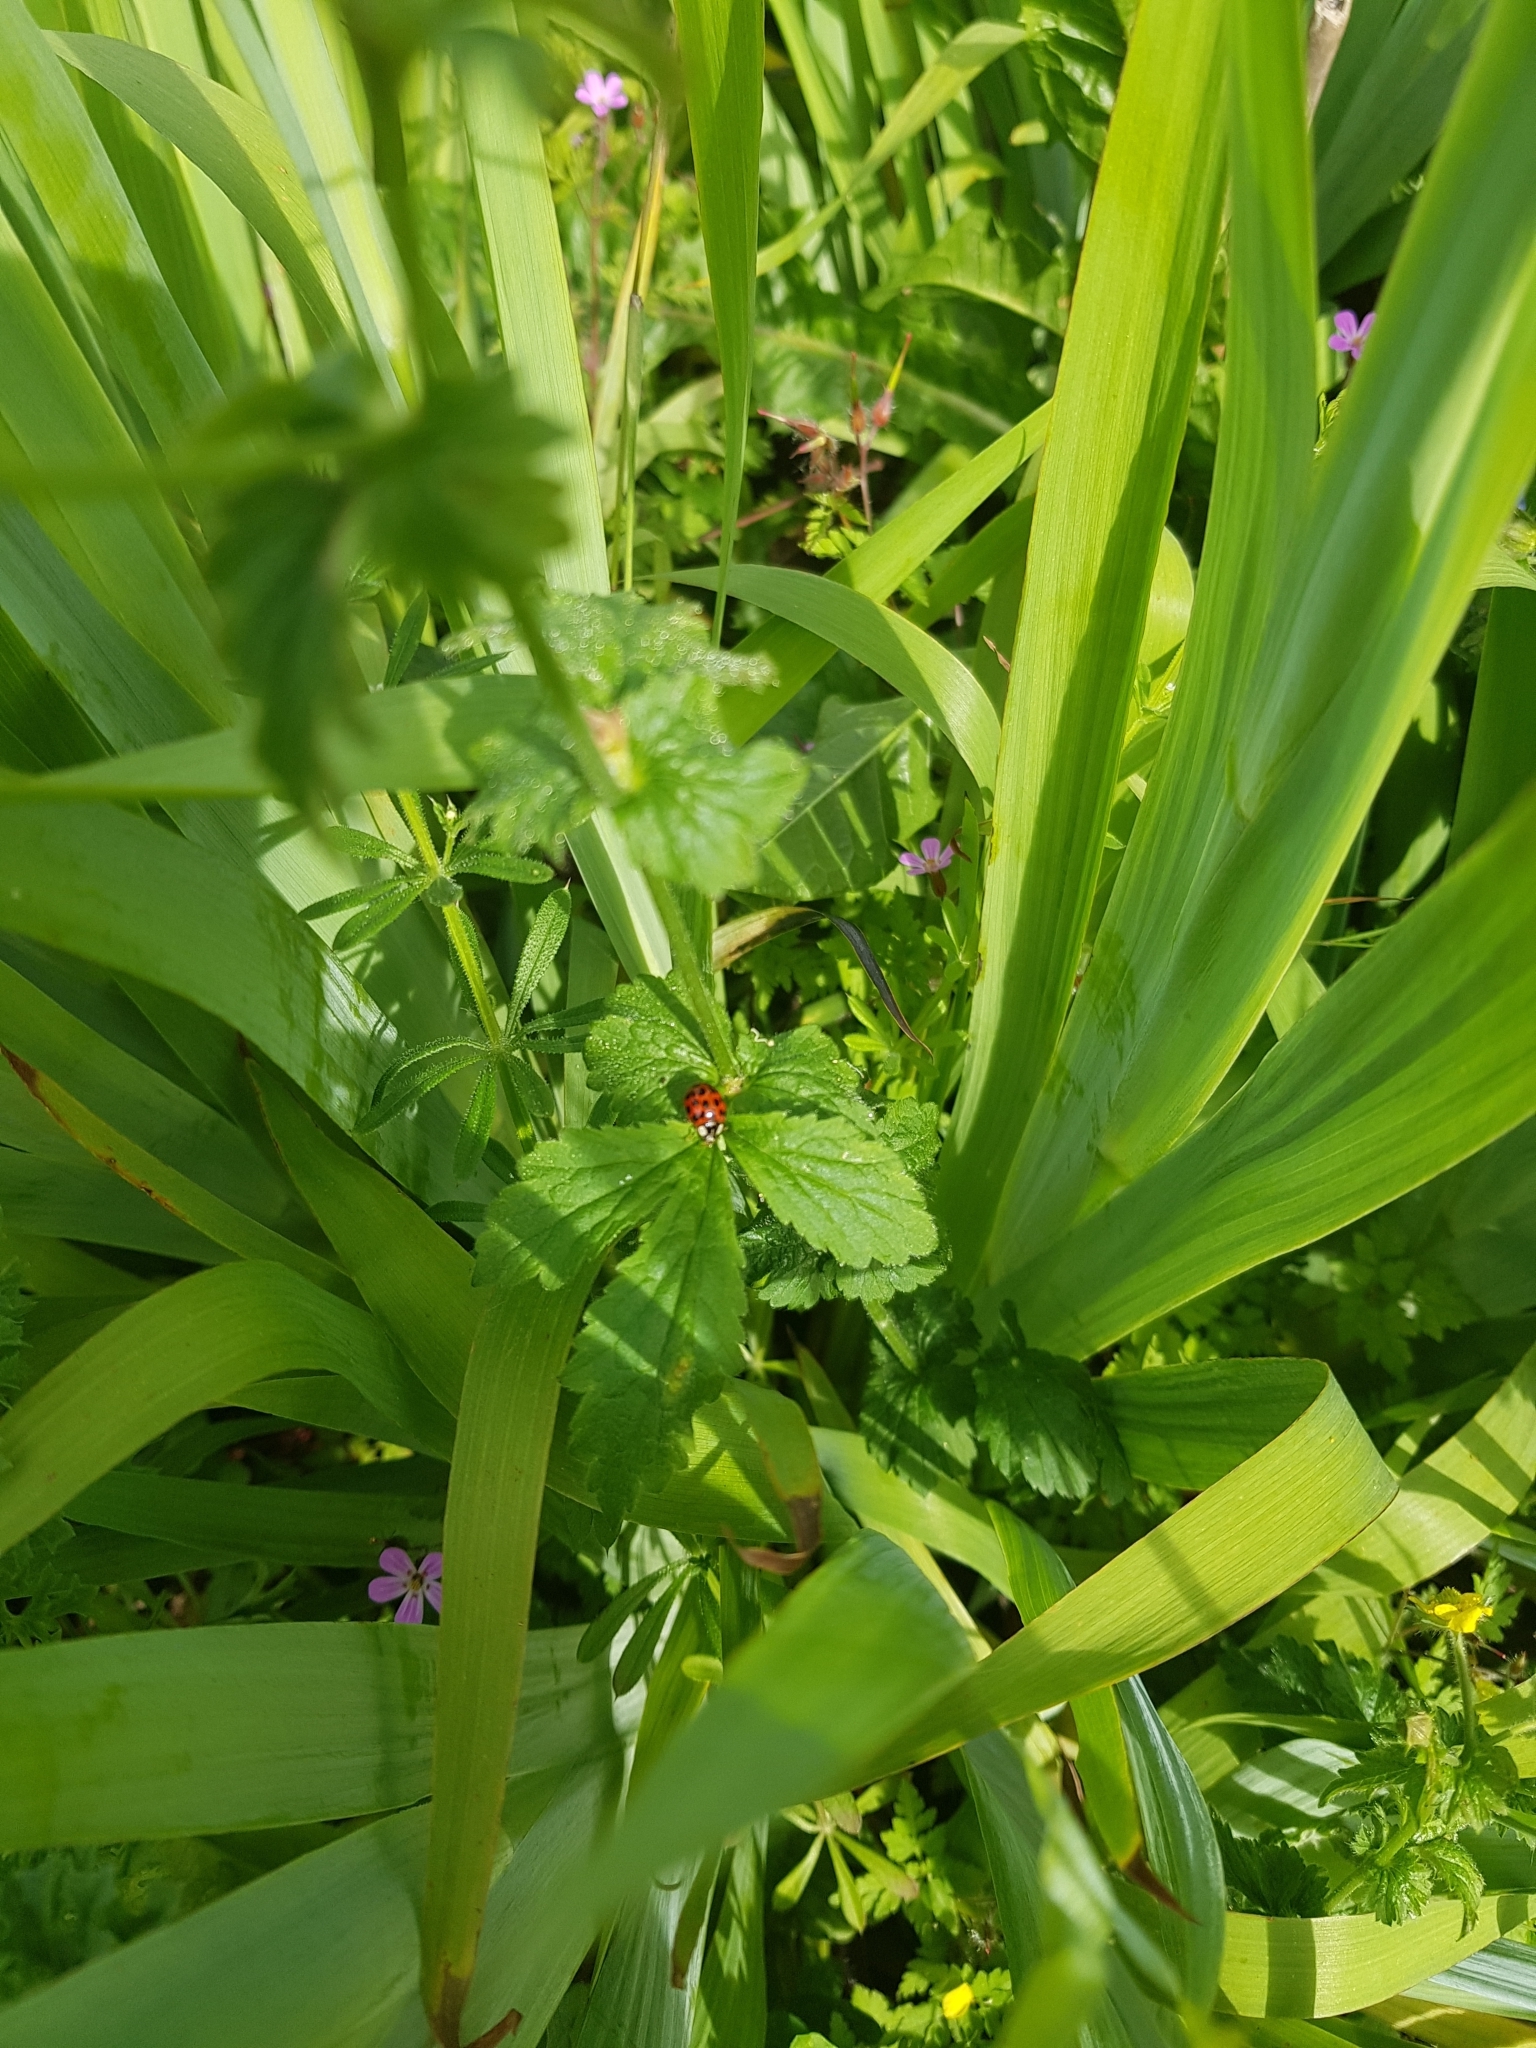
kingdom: Animalia
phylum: Arthropoda
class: Insecta
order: Coleoptera
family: Coccinellidae
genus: Harmonia
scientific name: Harmonia axyridis
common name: Harlequin ladybird
